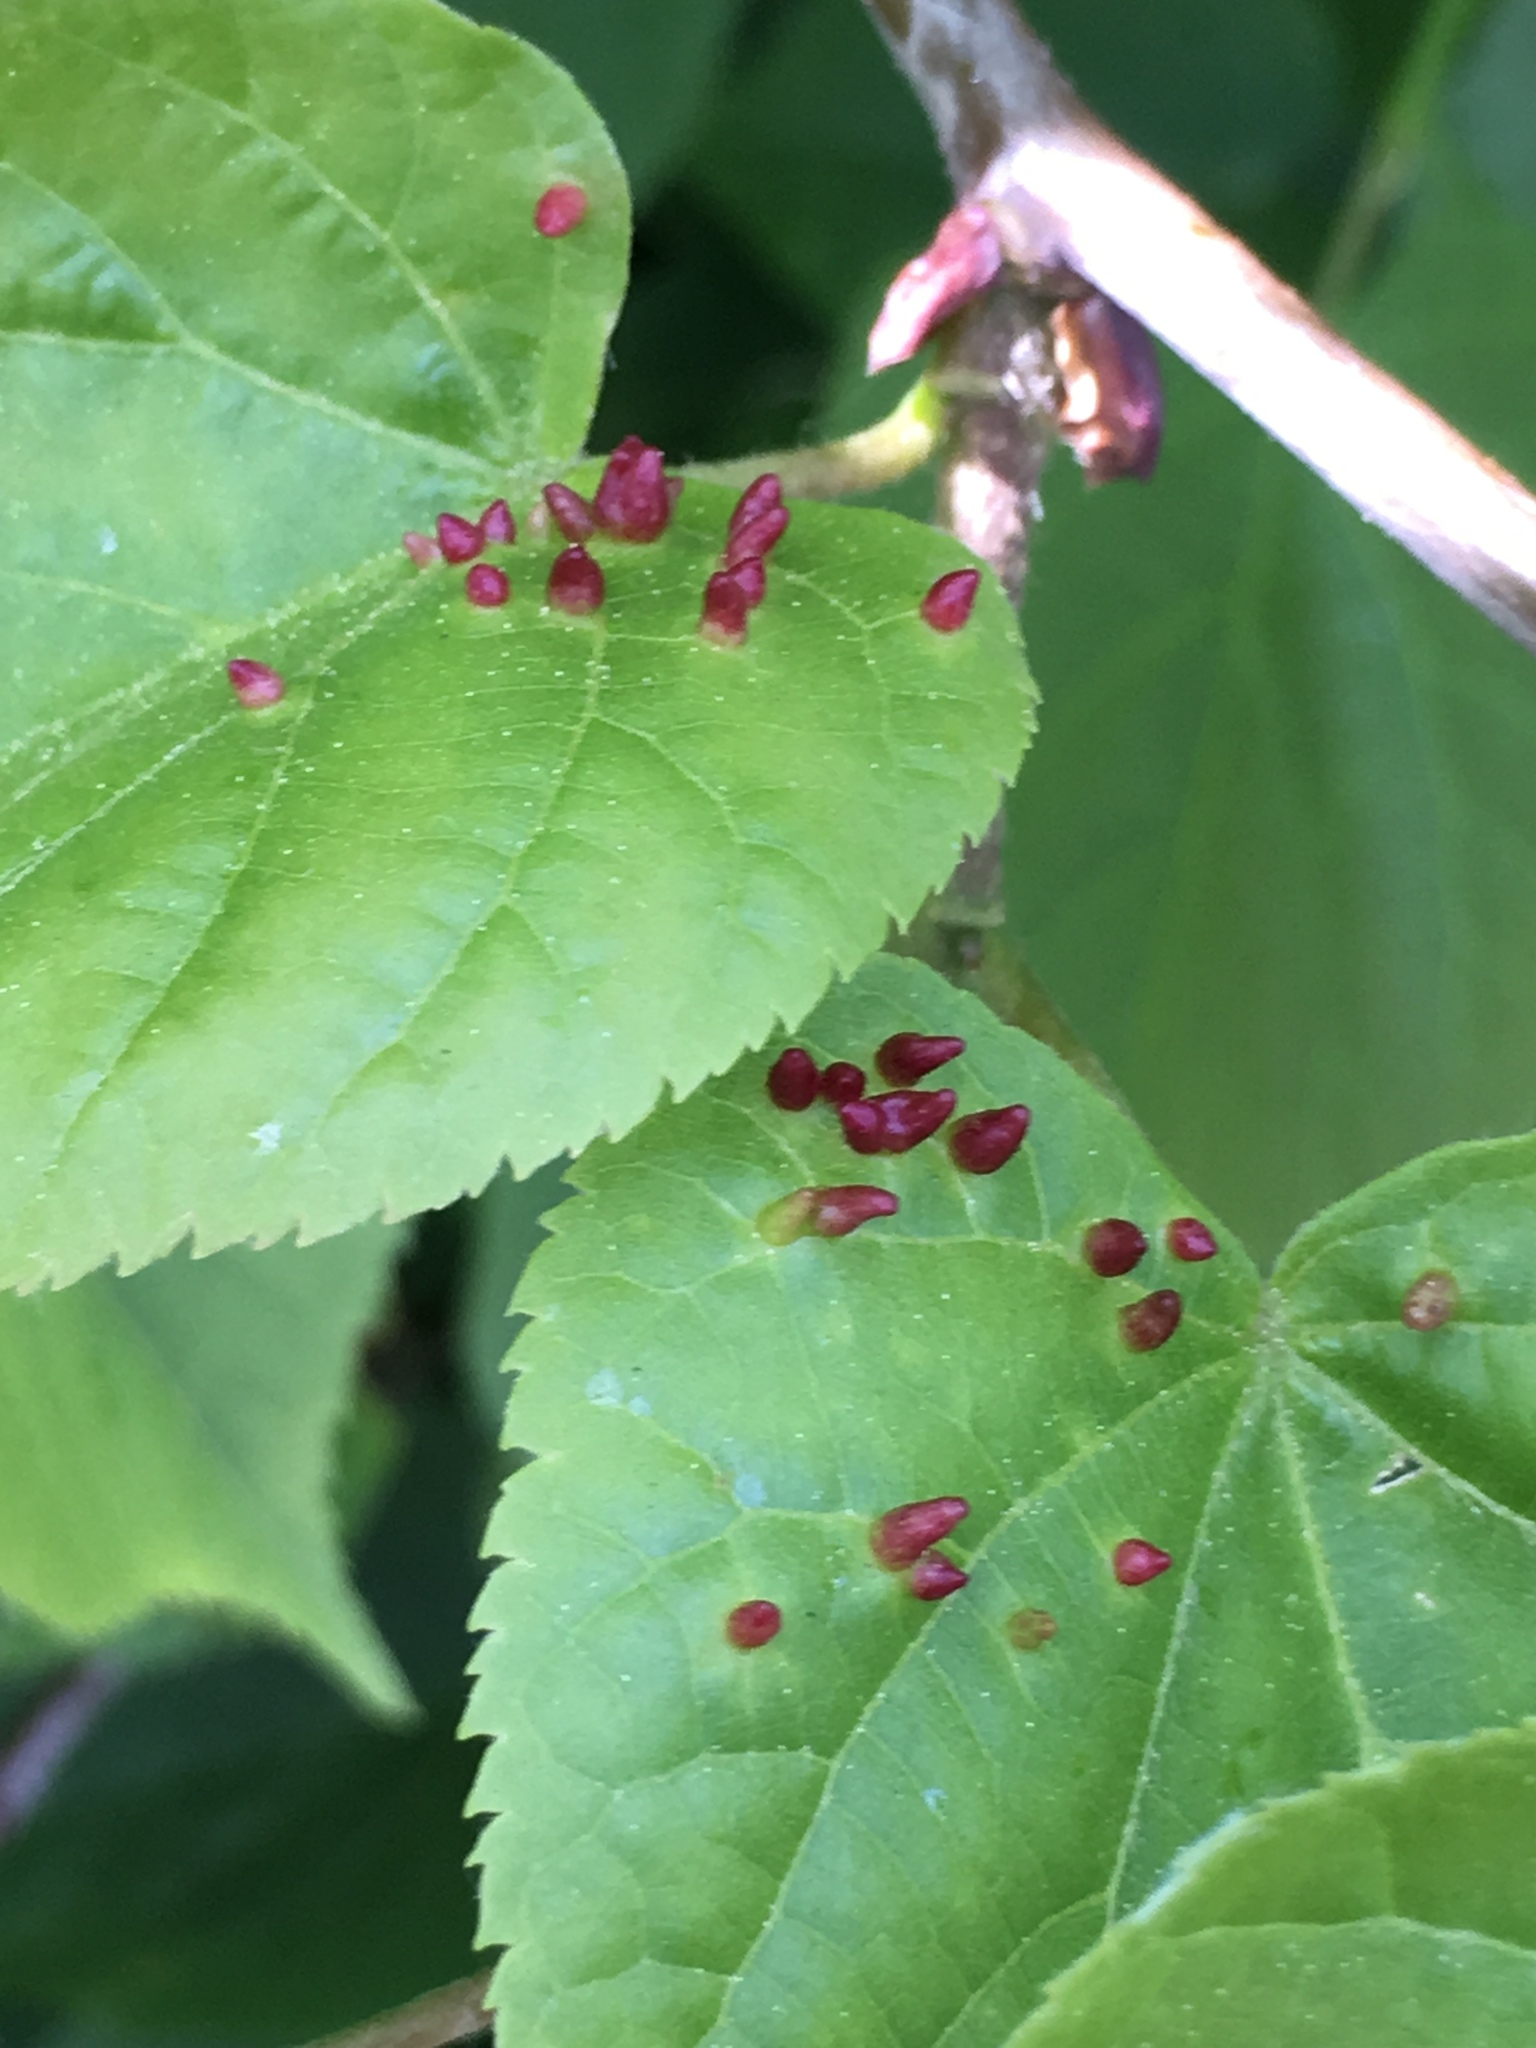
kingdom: Animalia
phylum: Arthropoda
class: Arachnida
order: Trombidiformes
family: Eriophyidae
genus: Eriophyes
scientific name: Eriophyes tiliae
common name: Red nail gall mite
